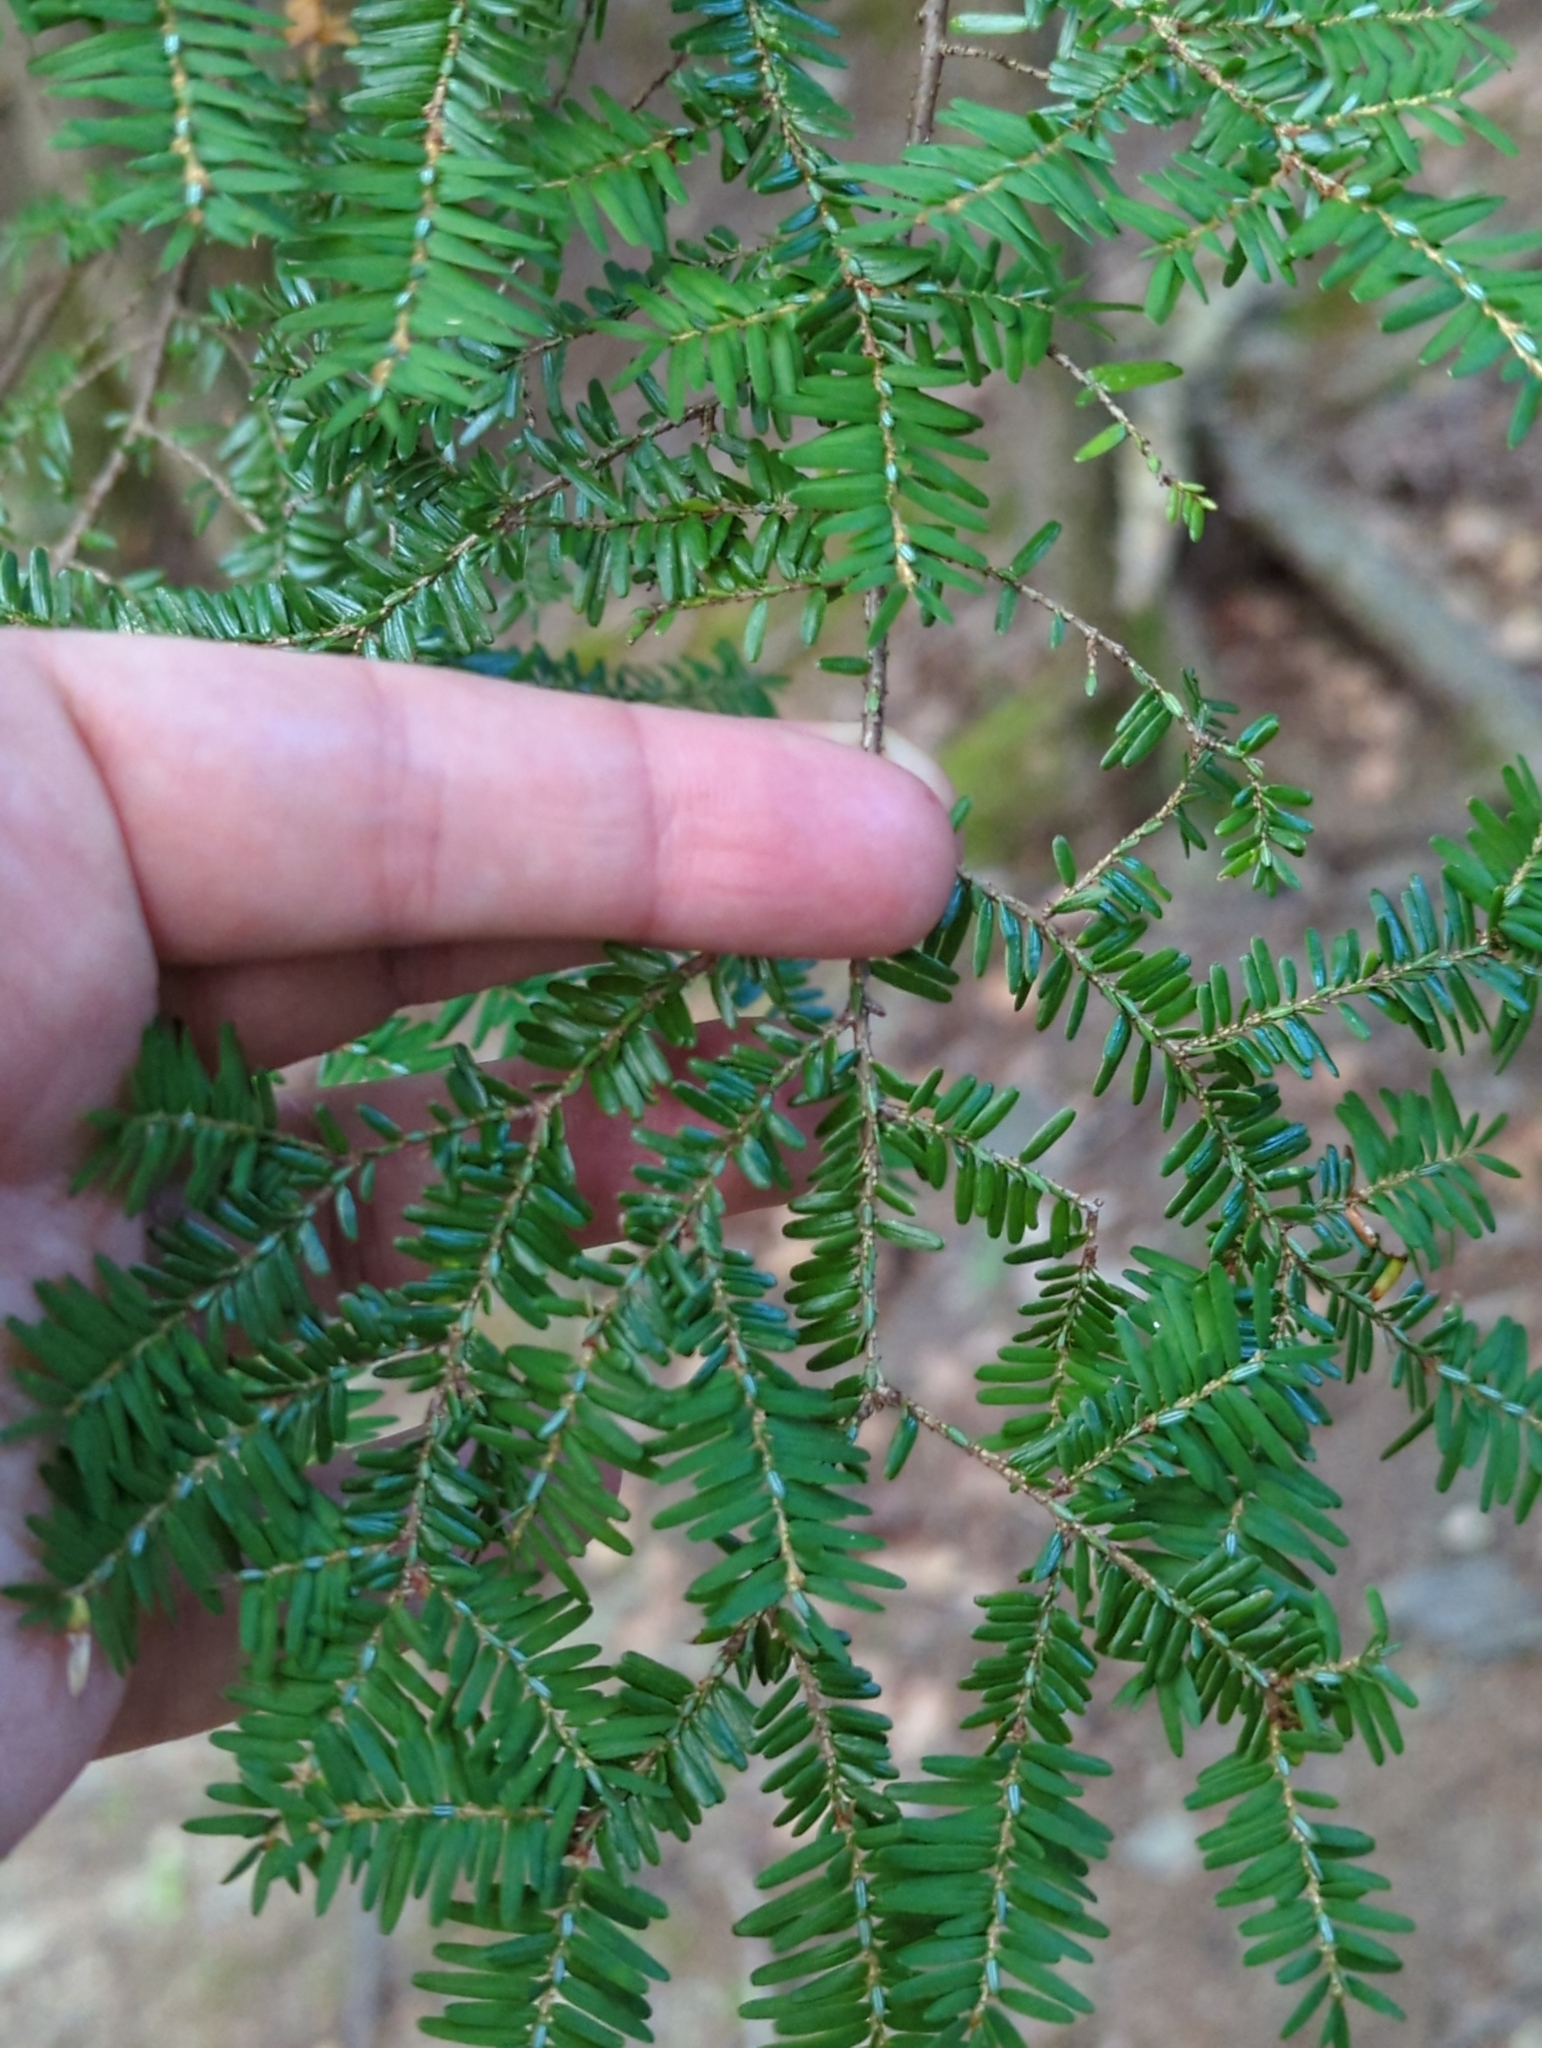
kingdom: Plantae
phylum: Tracheophyta
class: Pinopsida
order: Pinales
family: Pinaceae
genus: Tsuga
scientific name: Tsuga canadensis
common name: Eastern hemlock
